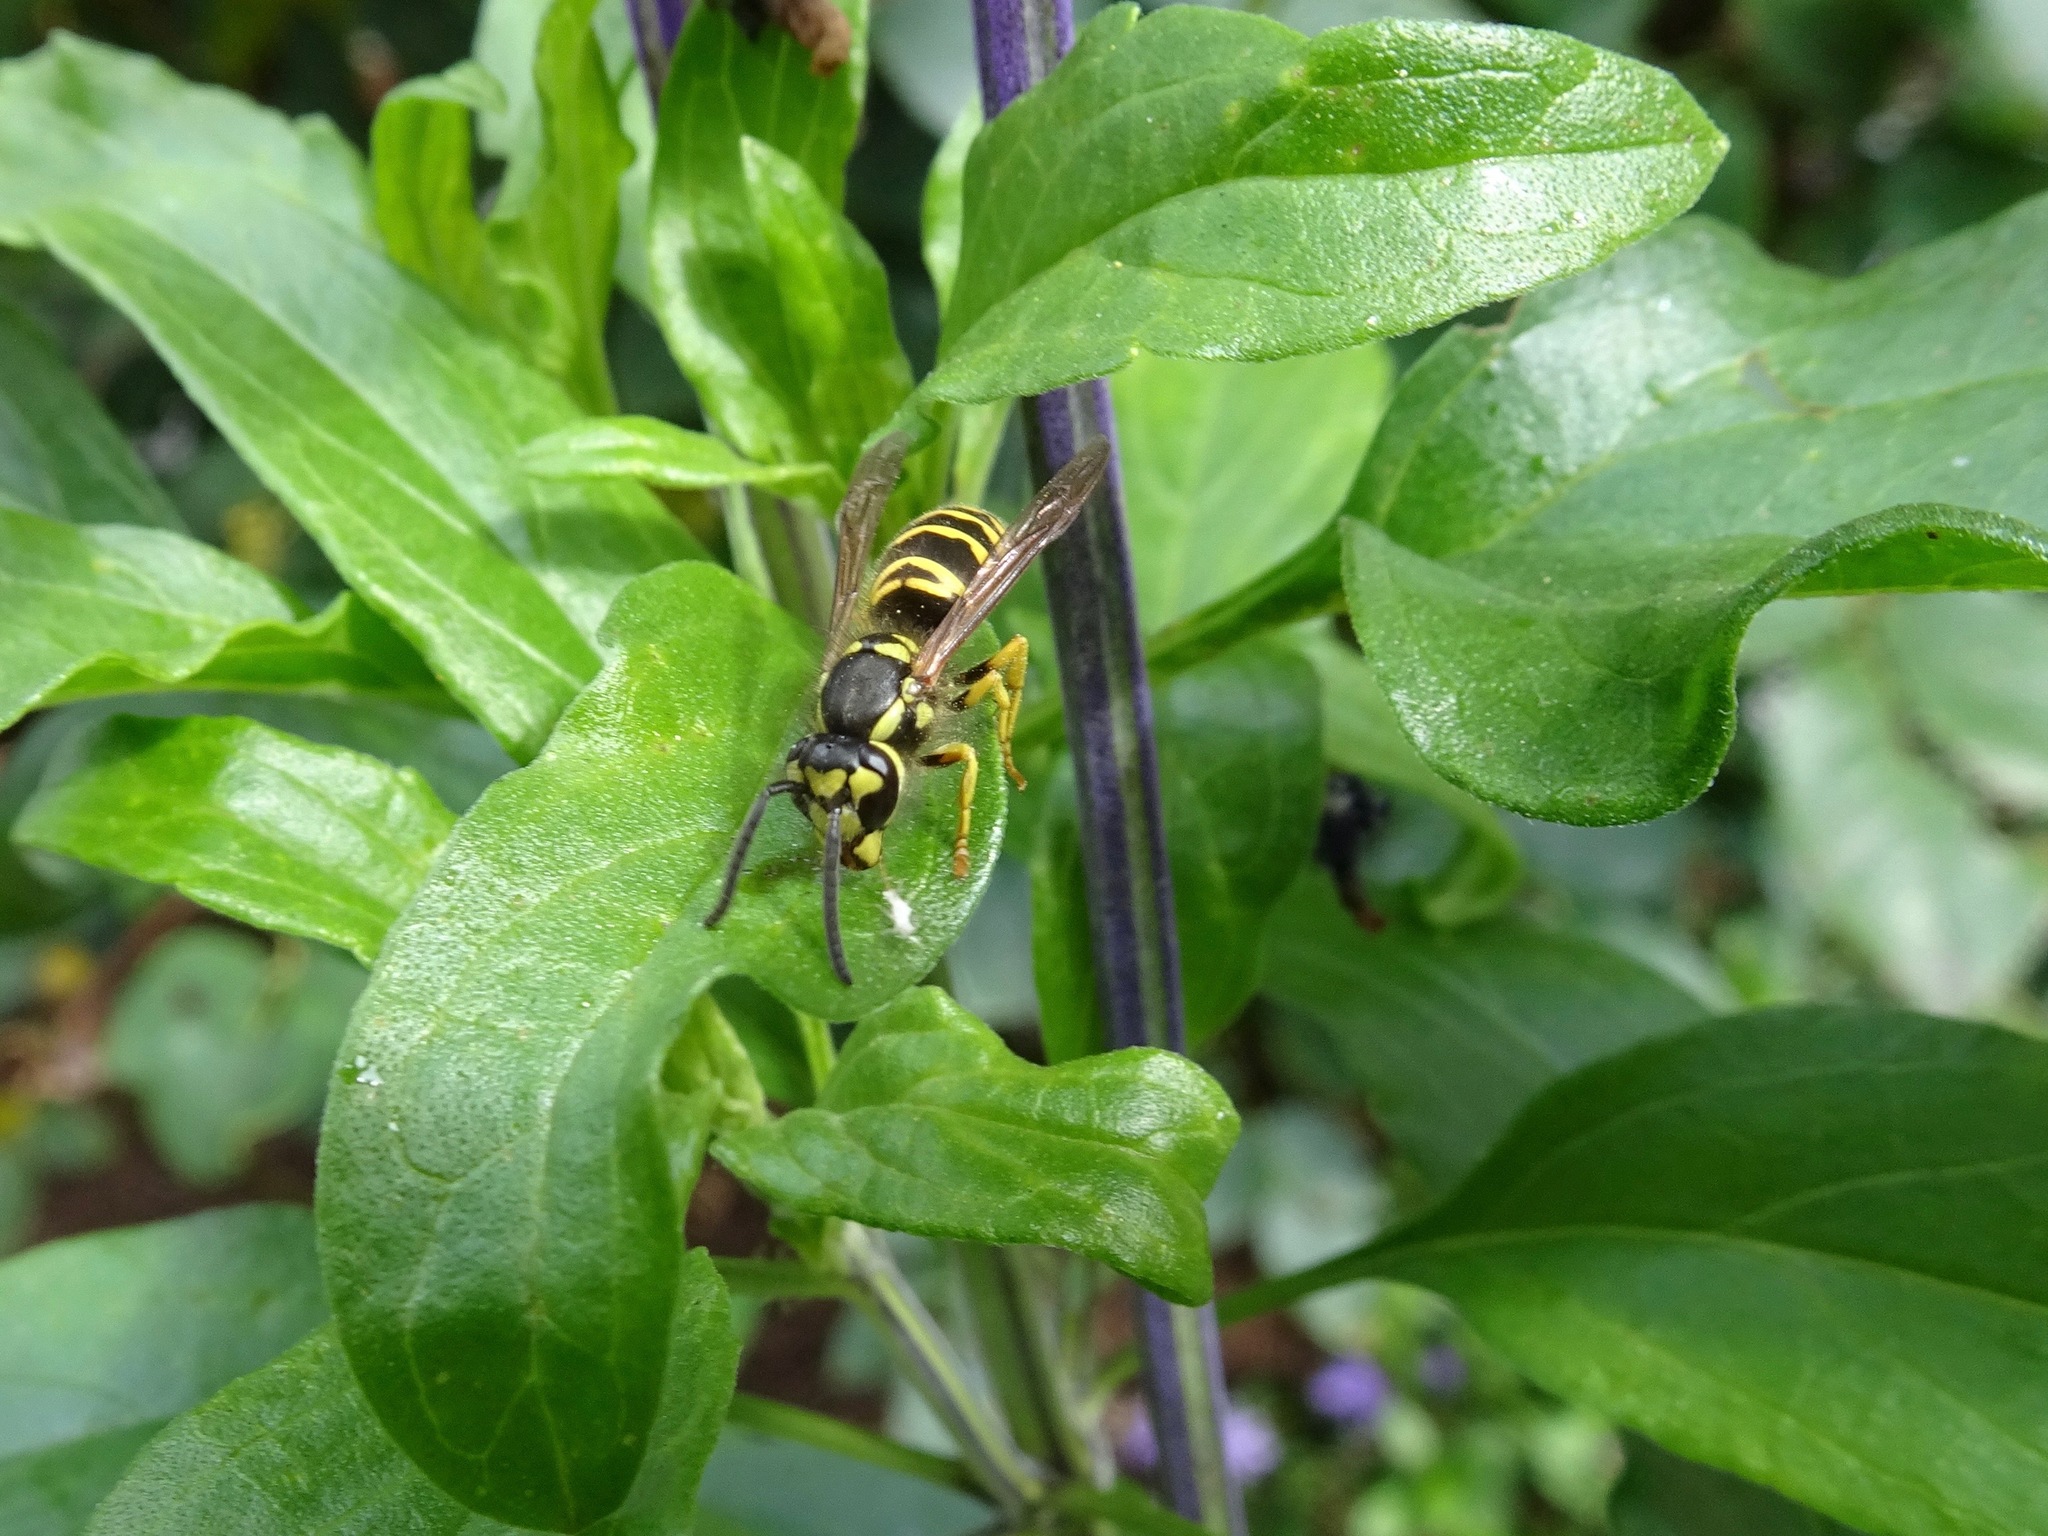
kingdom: Animalia
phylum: Arthropoda
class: Insecta
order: Hymenoptera
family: Vespidae
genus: Vespula
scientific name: Vespula maculifrons
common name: Eastern yellowjacket
